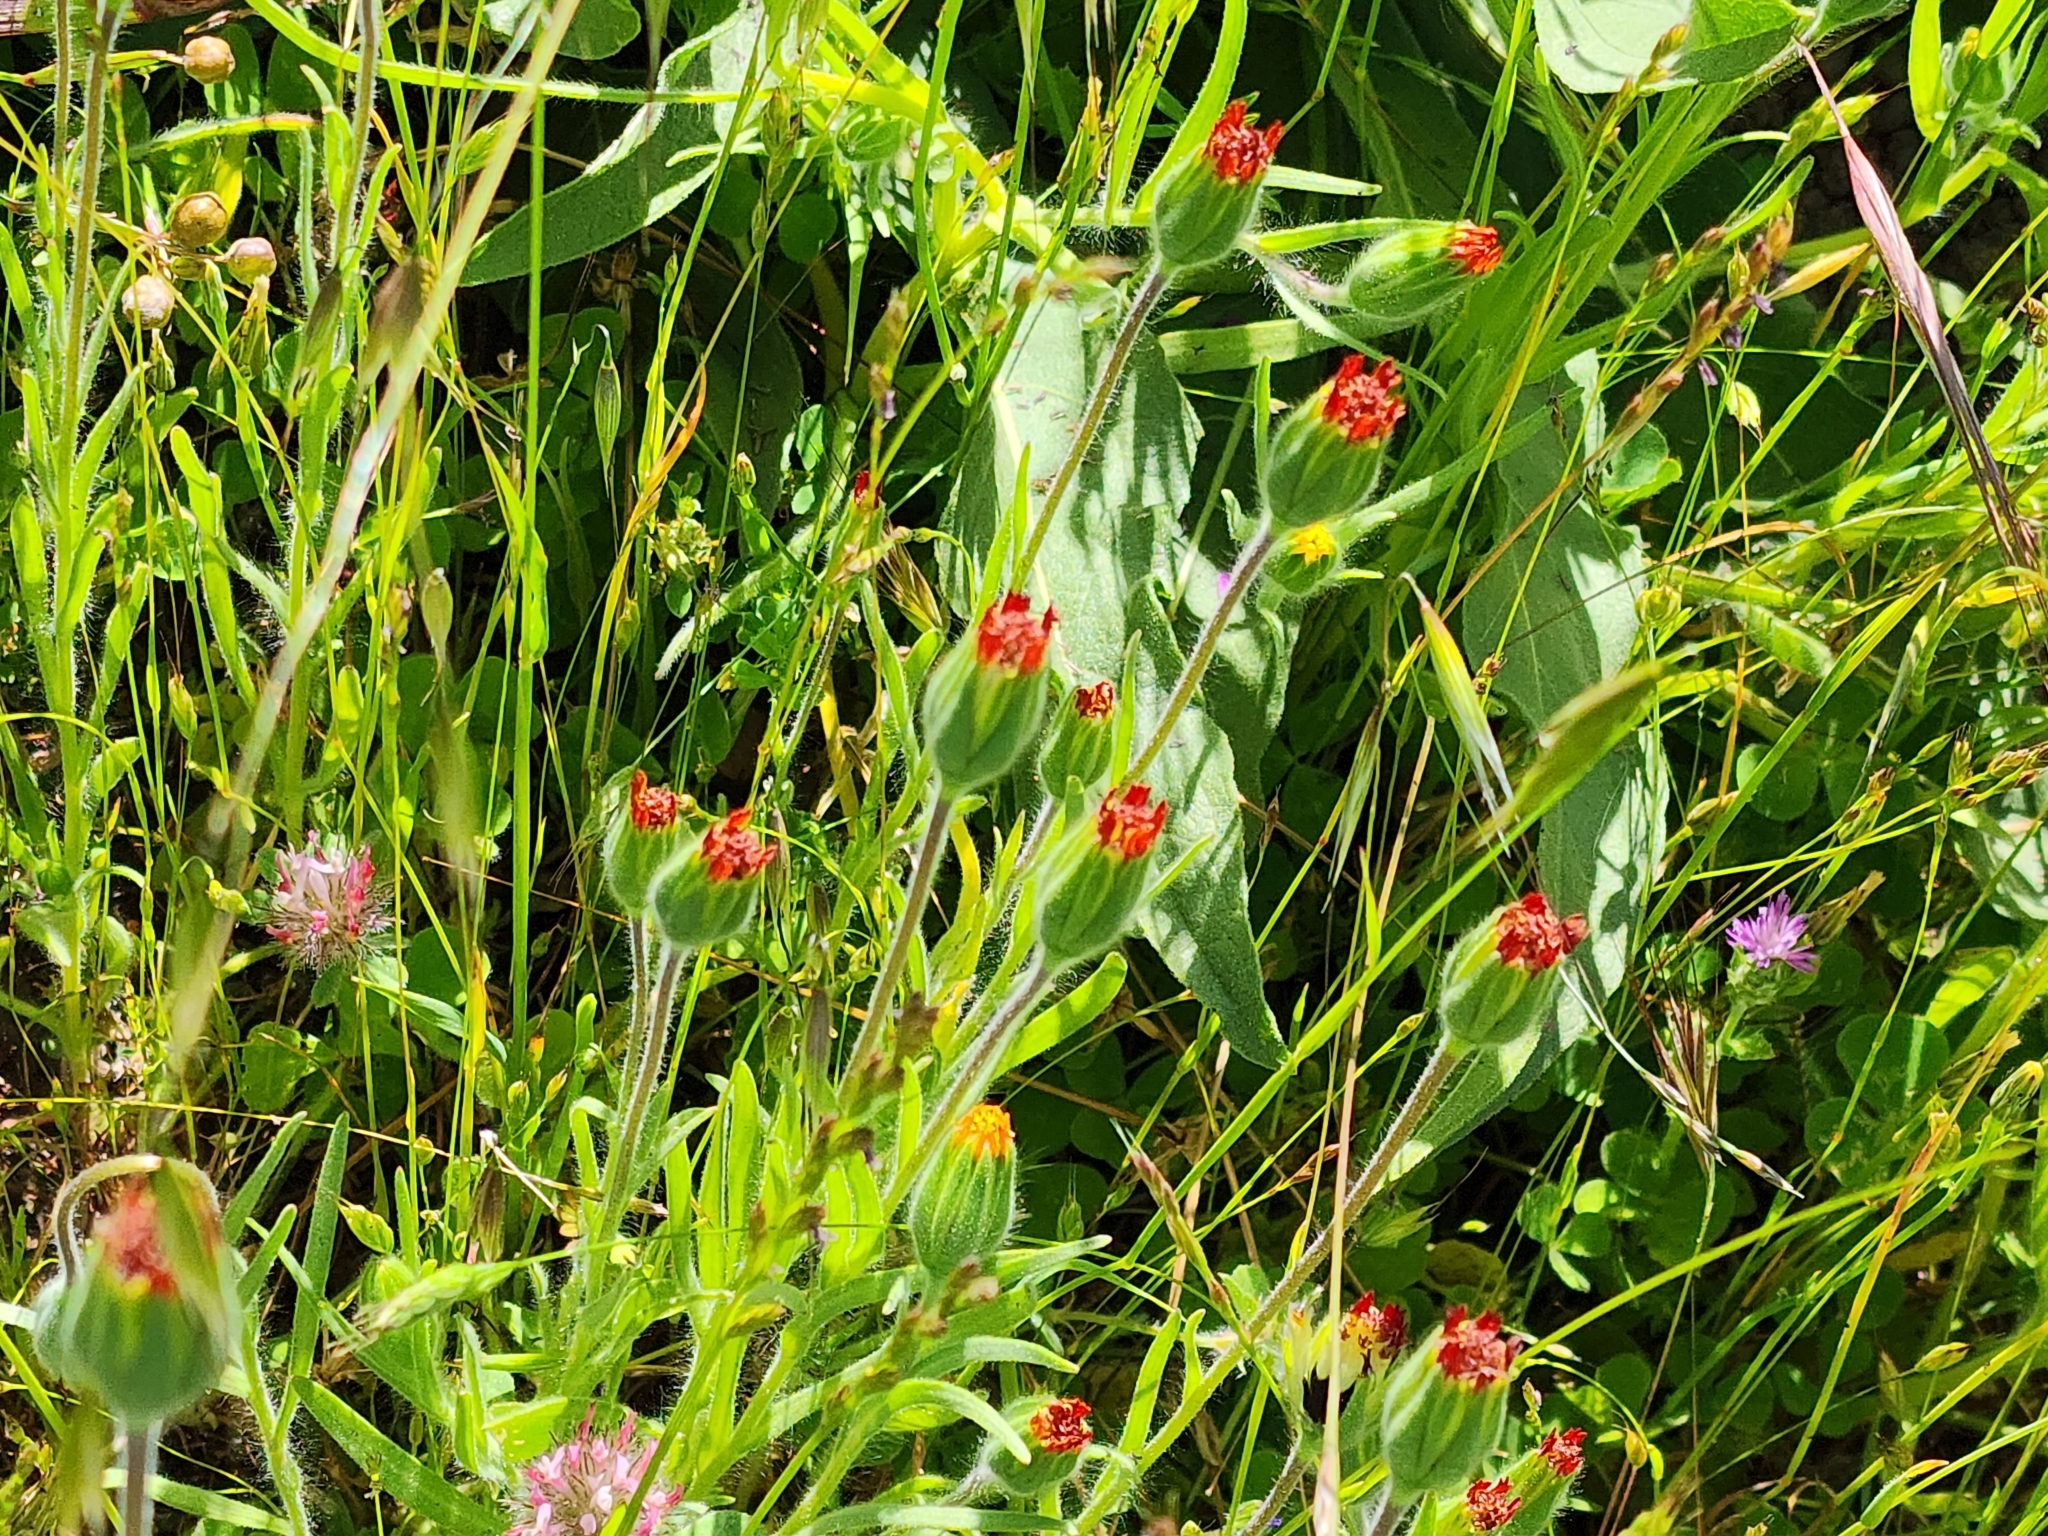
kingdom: Plantae
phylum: Tracheophyta
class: Magnoliopsida
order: Asterales
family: Asteraceae
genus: Achyrachaena
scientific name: Achyrachaena mollis
